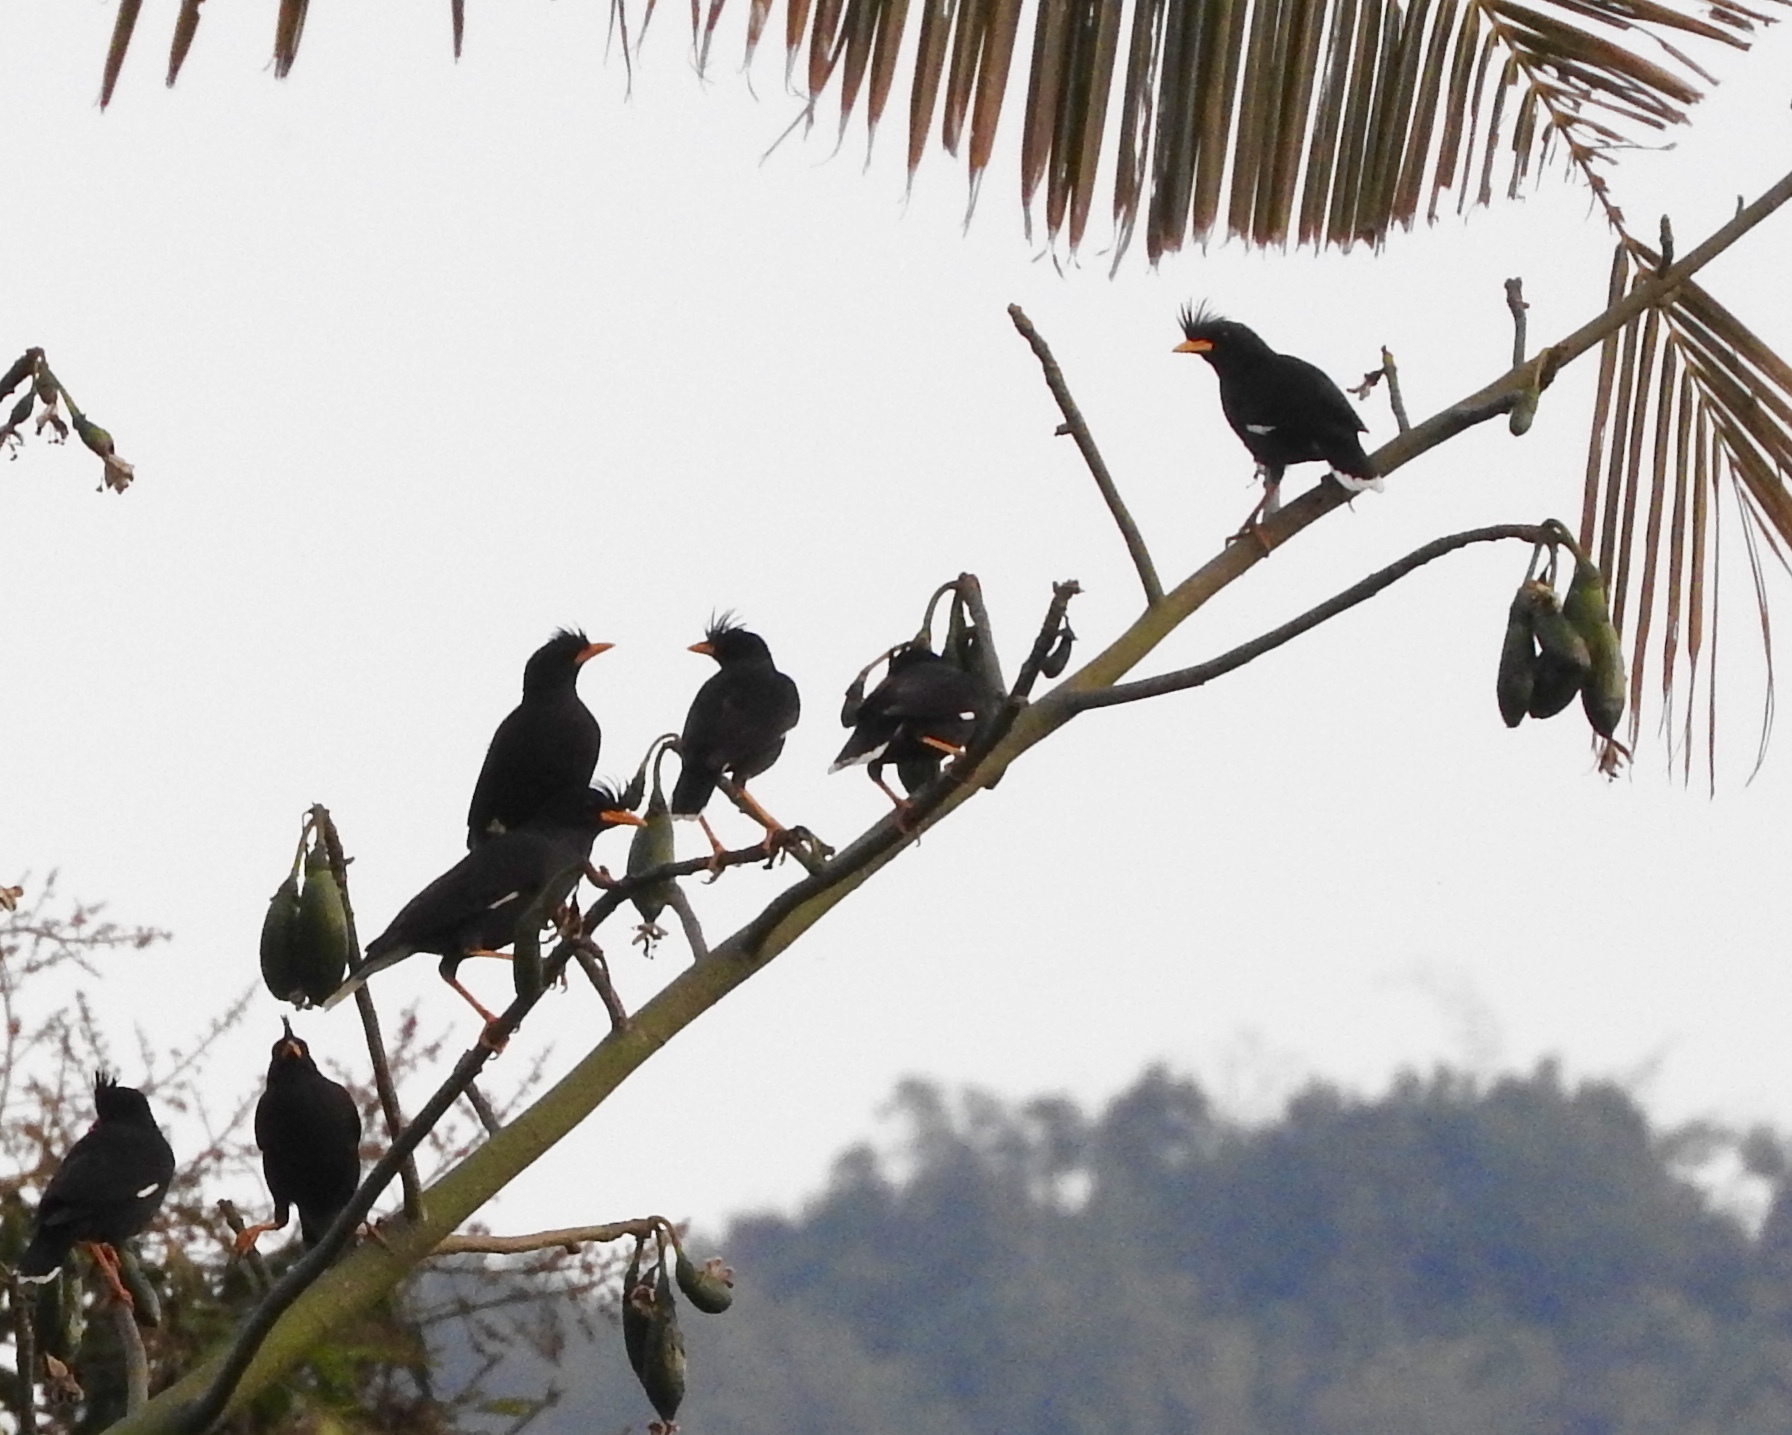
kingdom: Animalia
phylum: Chordata
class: Aves
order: Passeriformes
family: Sturnidae
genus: Acridotheres
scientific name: Acridotheres grandis
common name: Great myna
